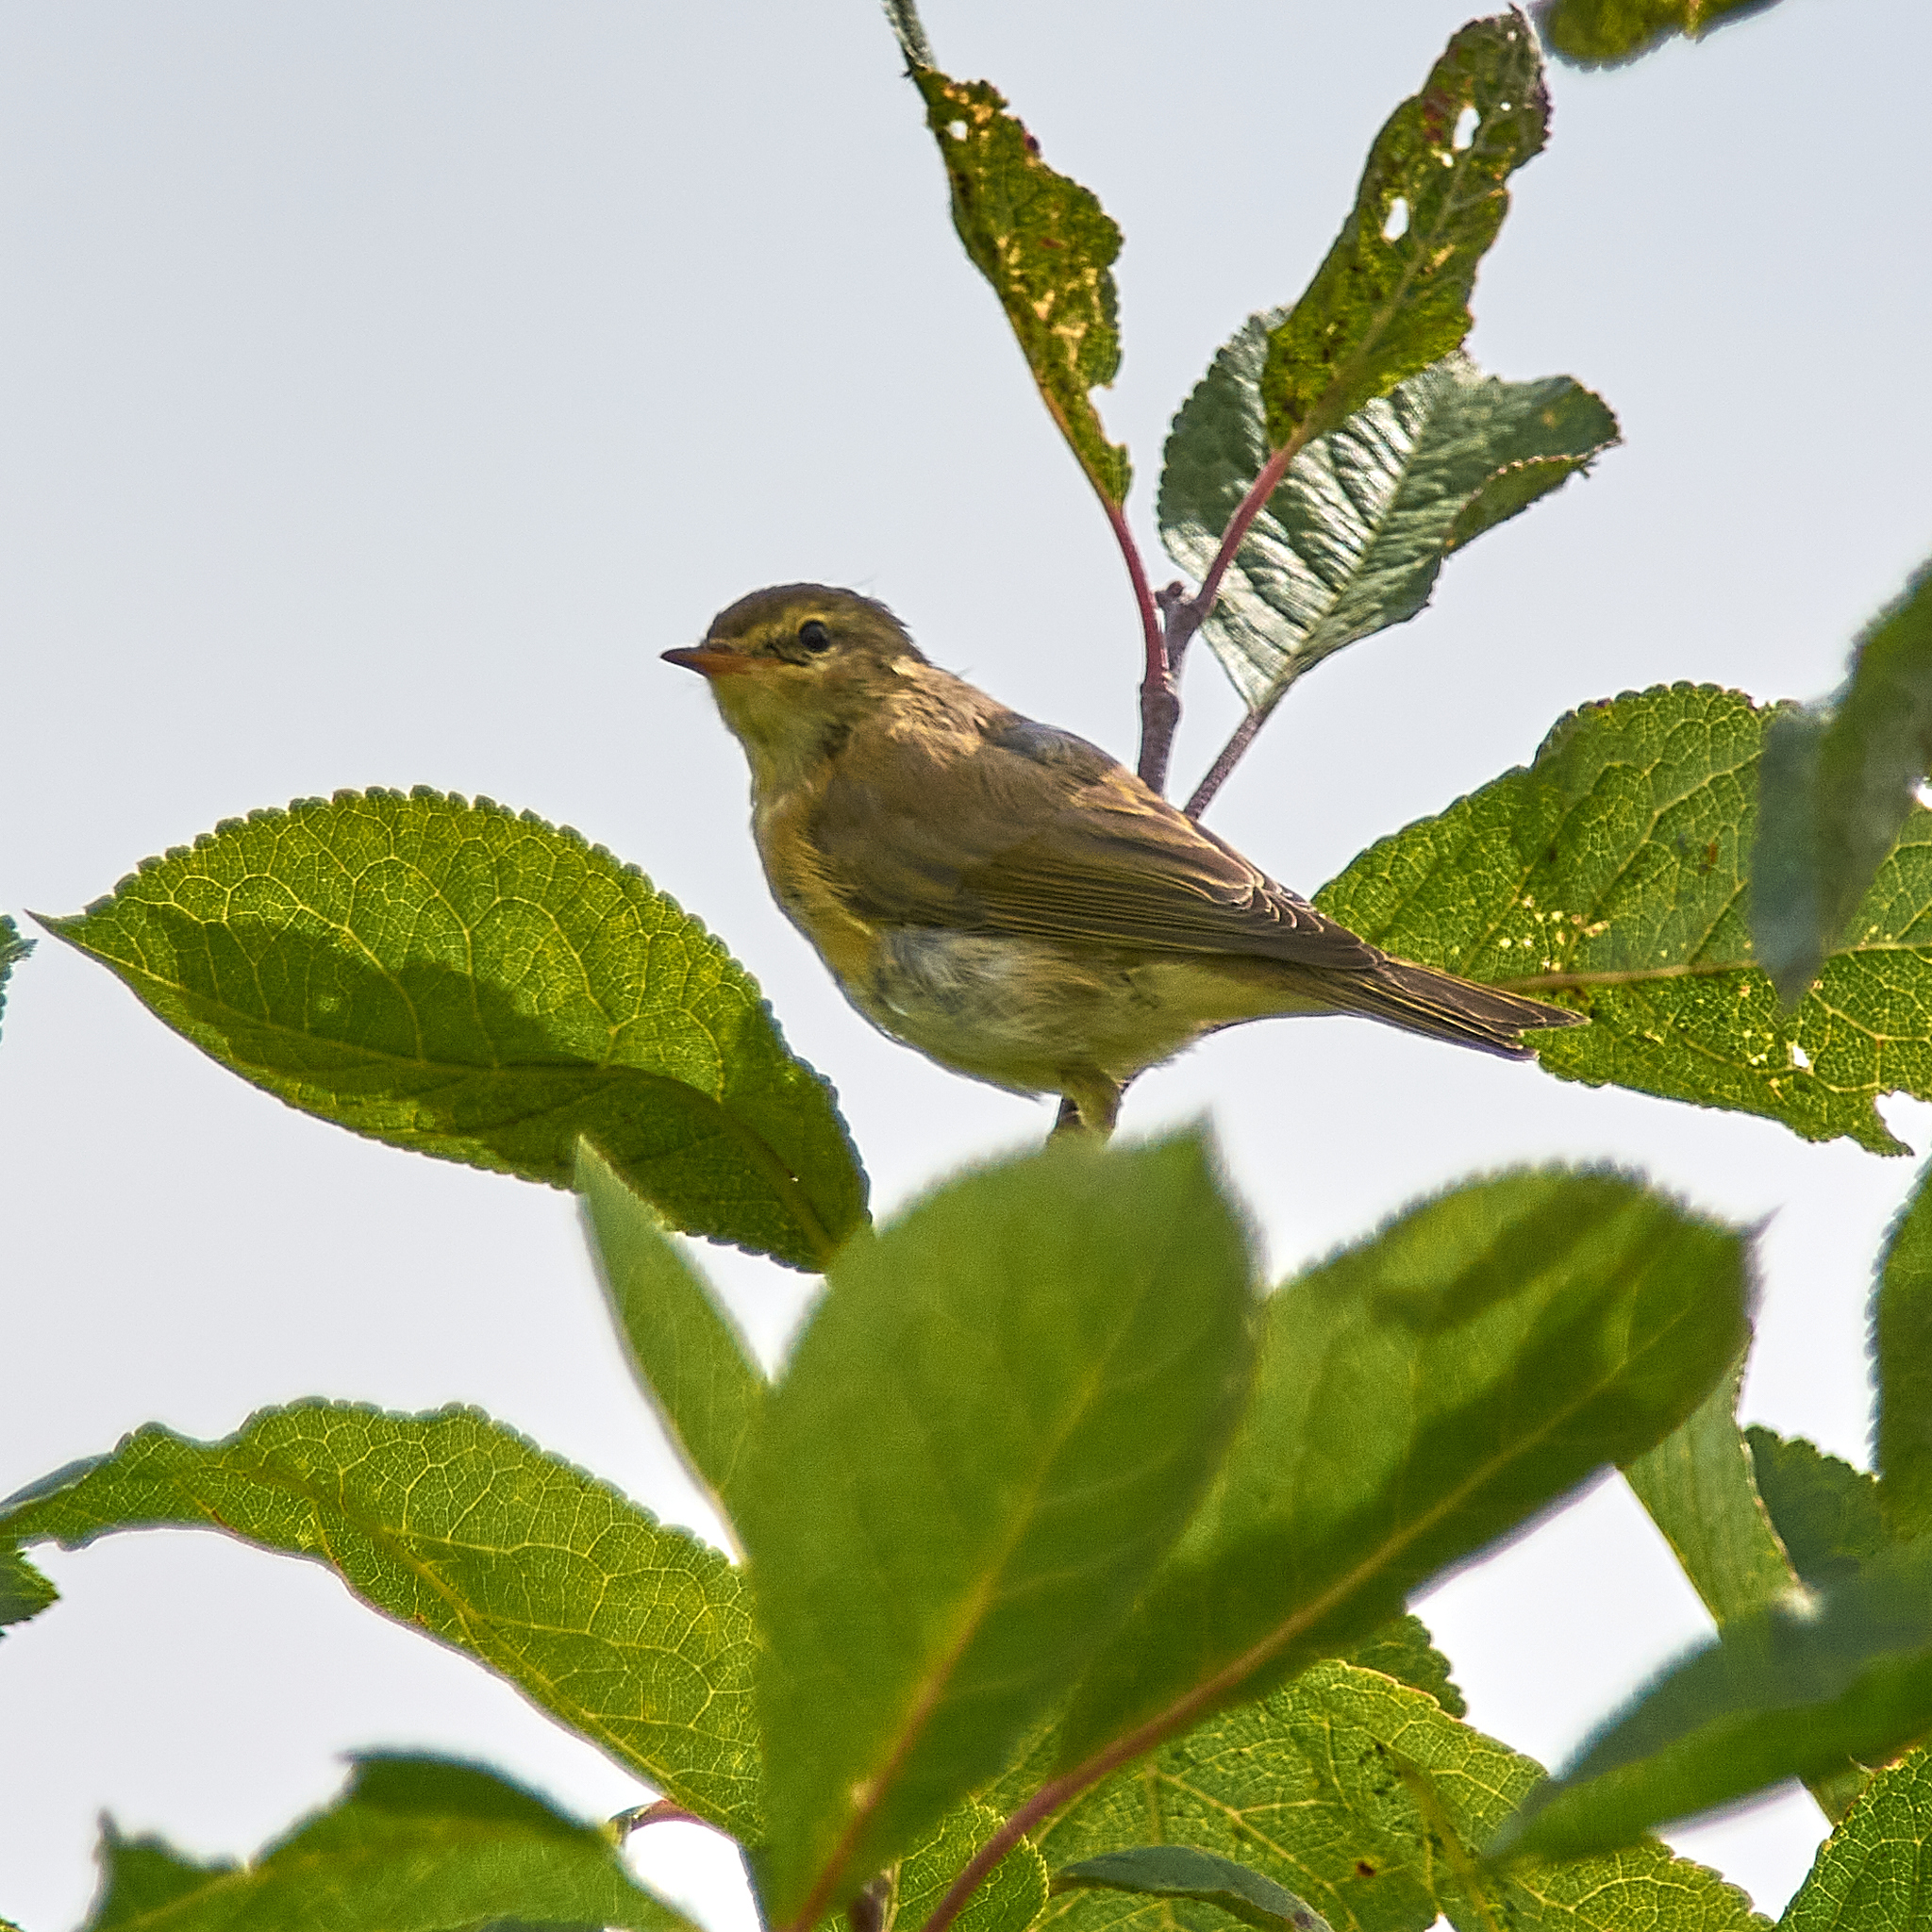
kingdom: Animalia
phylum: Chordata
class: Aves
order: Passeriformes
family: Phylloscopidae
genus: Phylloscopus
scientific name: Phylloscopus trochilus
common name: Willow warbler
